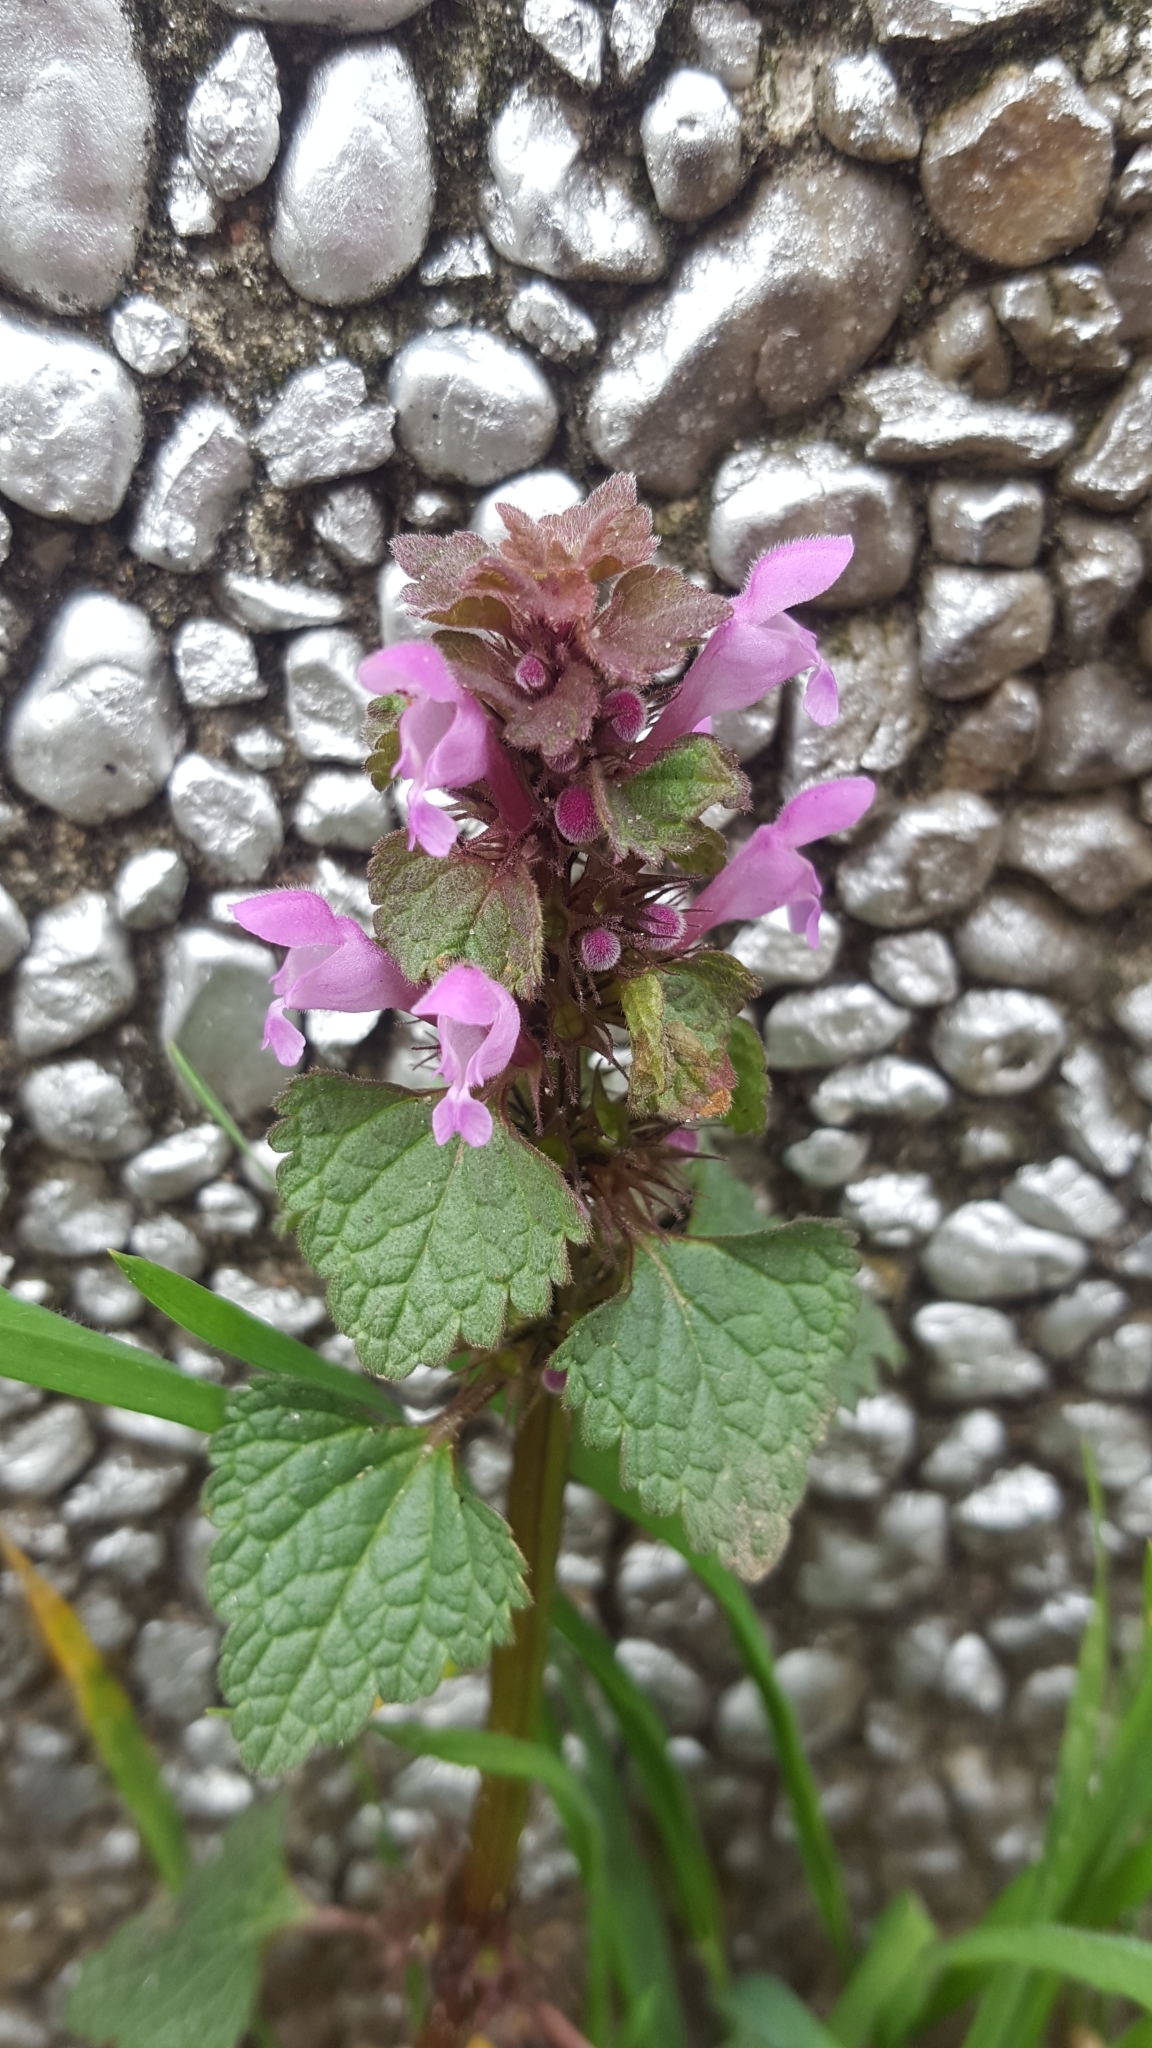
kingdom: Plantae
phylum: Tracheophyta
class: Magnoliopsida
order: Lamiales
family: Lamiaceae
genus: Lamium
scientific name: Lamium purpureum
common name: Red dead-nettle
